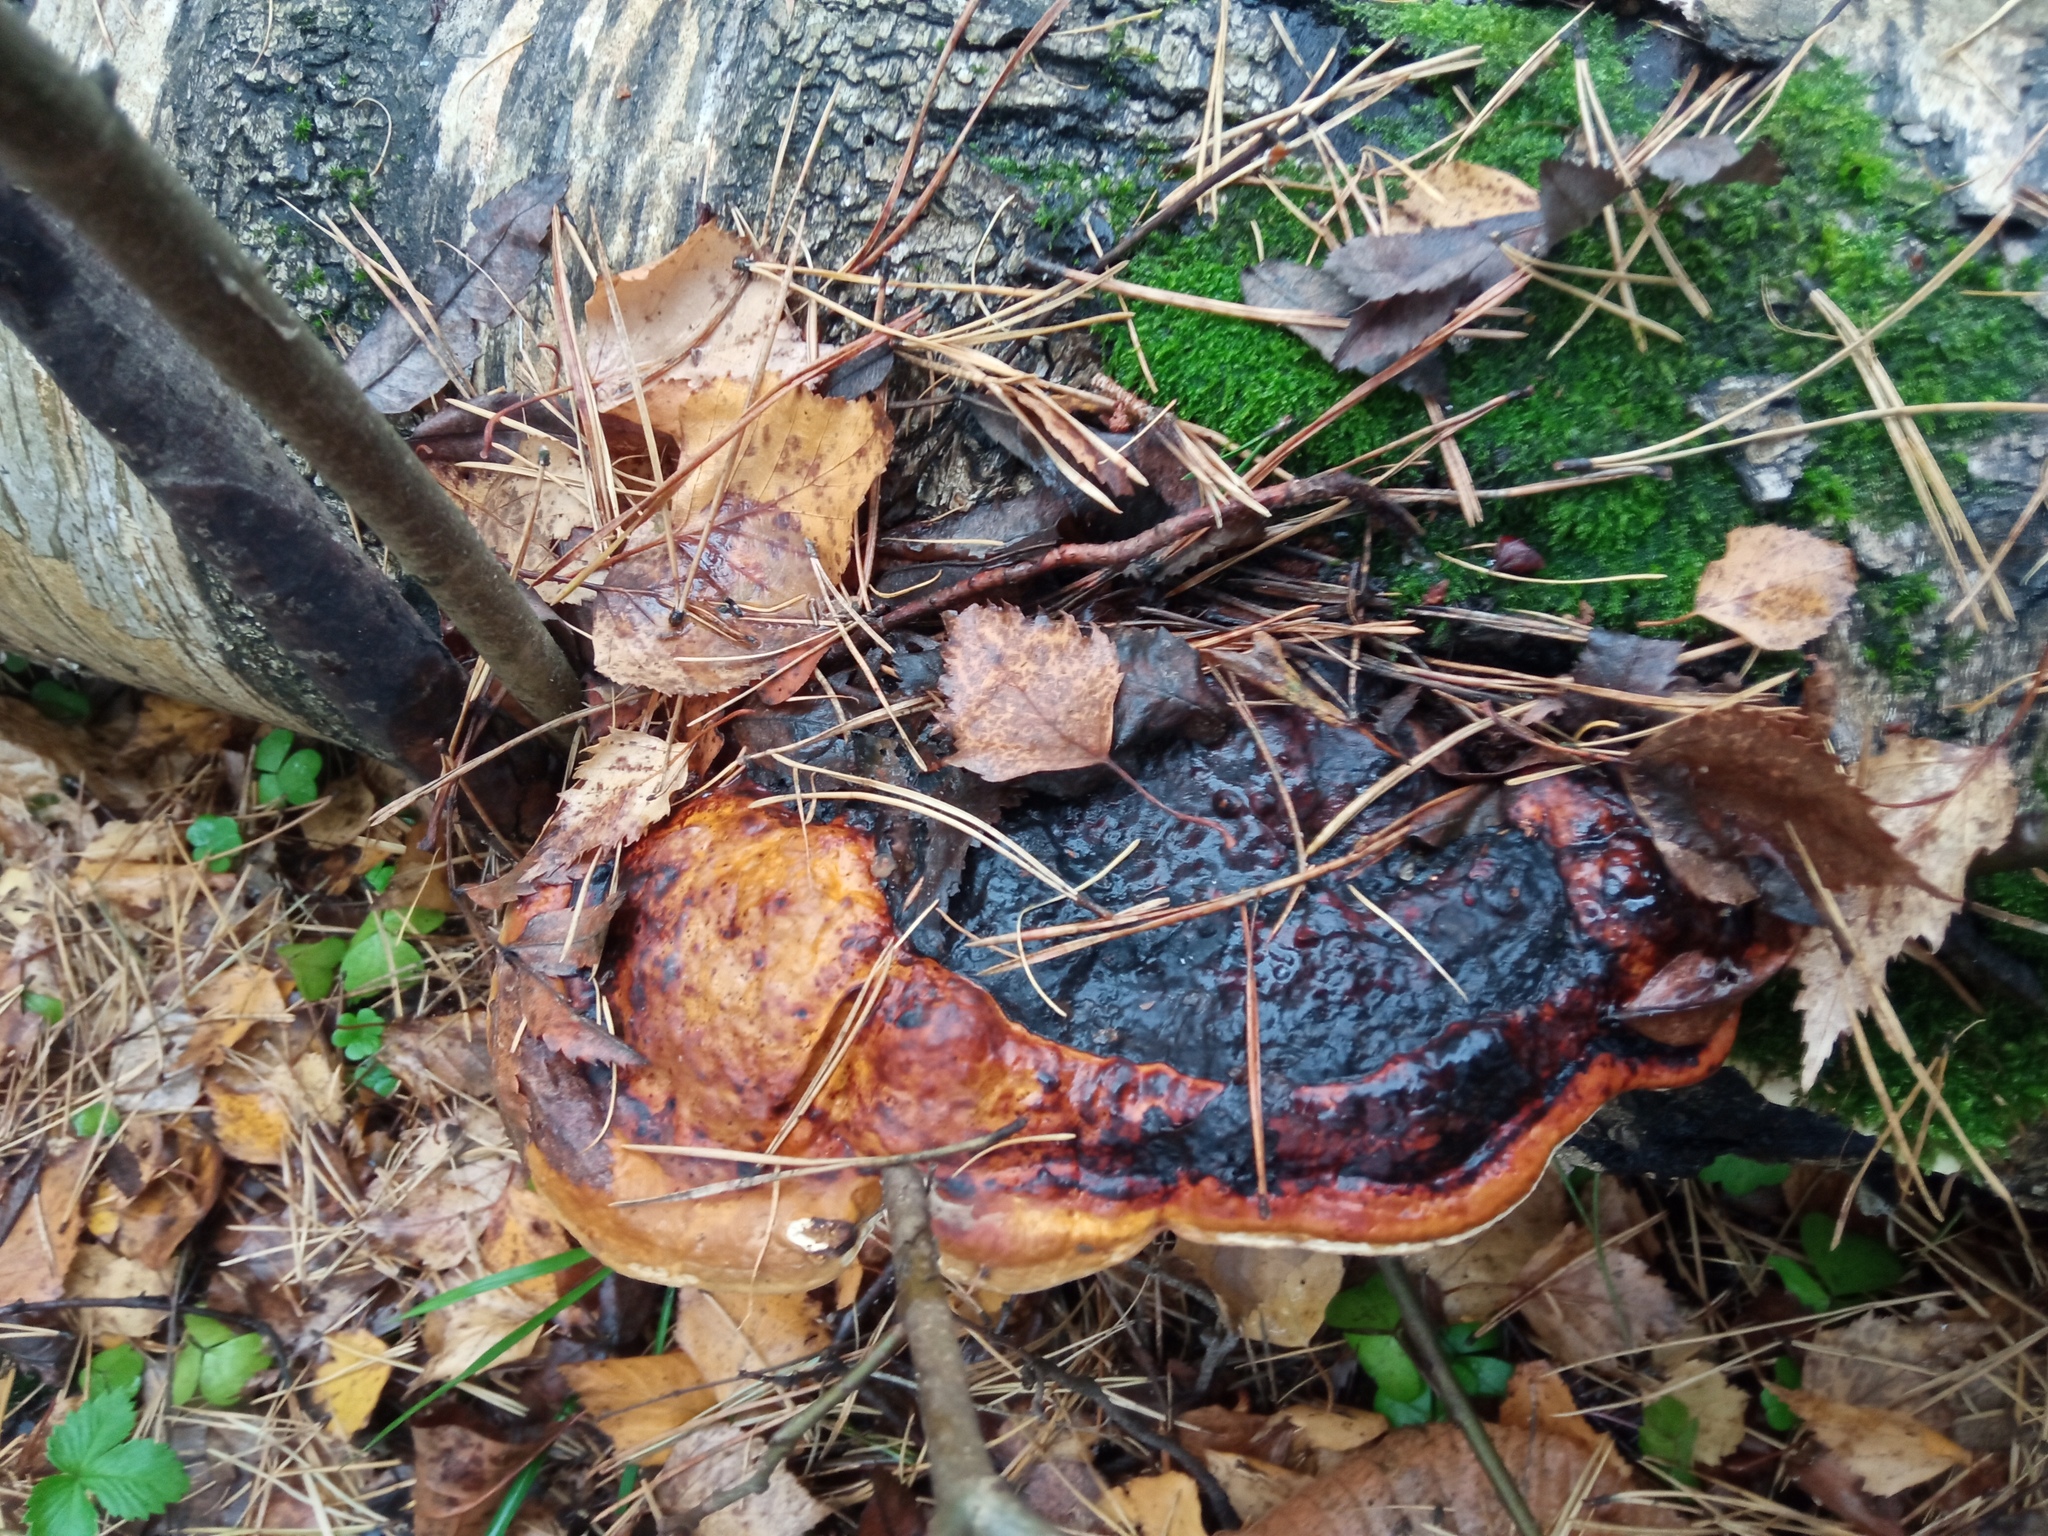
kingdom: Fungi
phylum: Basidiomycota
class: Agaricomycetes
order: Polyporales
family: Fomitopsidaceae
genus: Fomitopsis
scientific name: Fomitopsis pinicola
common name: Red-belted bracket
